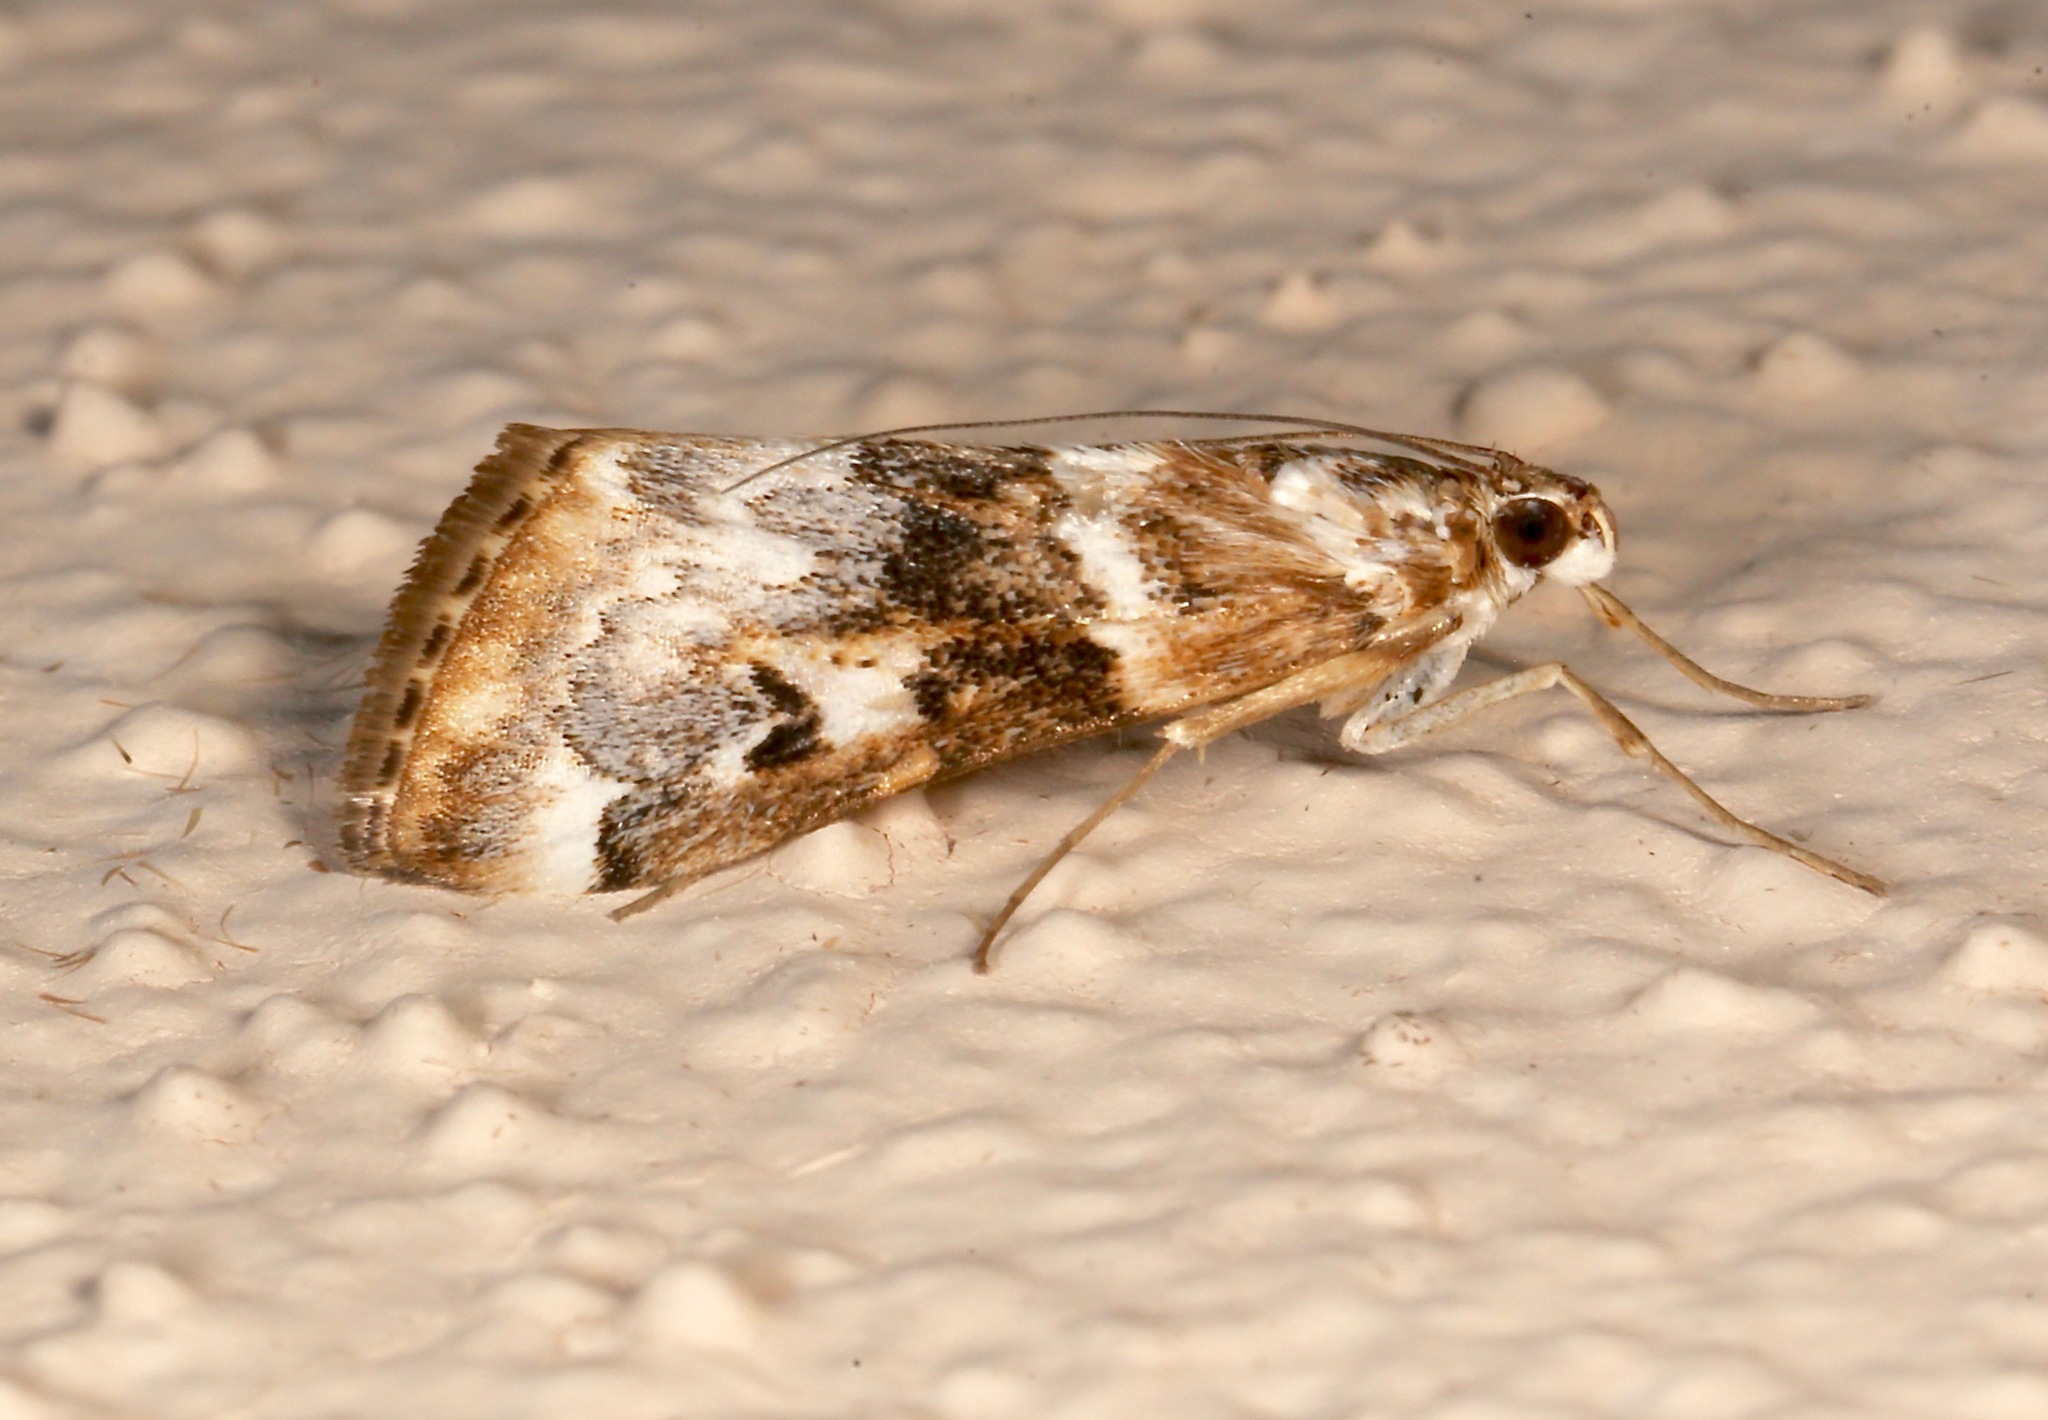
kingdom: Animalia
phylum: Arthropoda
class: Insecta
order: Lepidoptera
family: Crambidae
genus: Loxostege
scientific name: Loxostege kearfottalis
